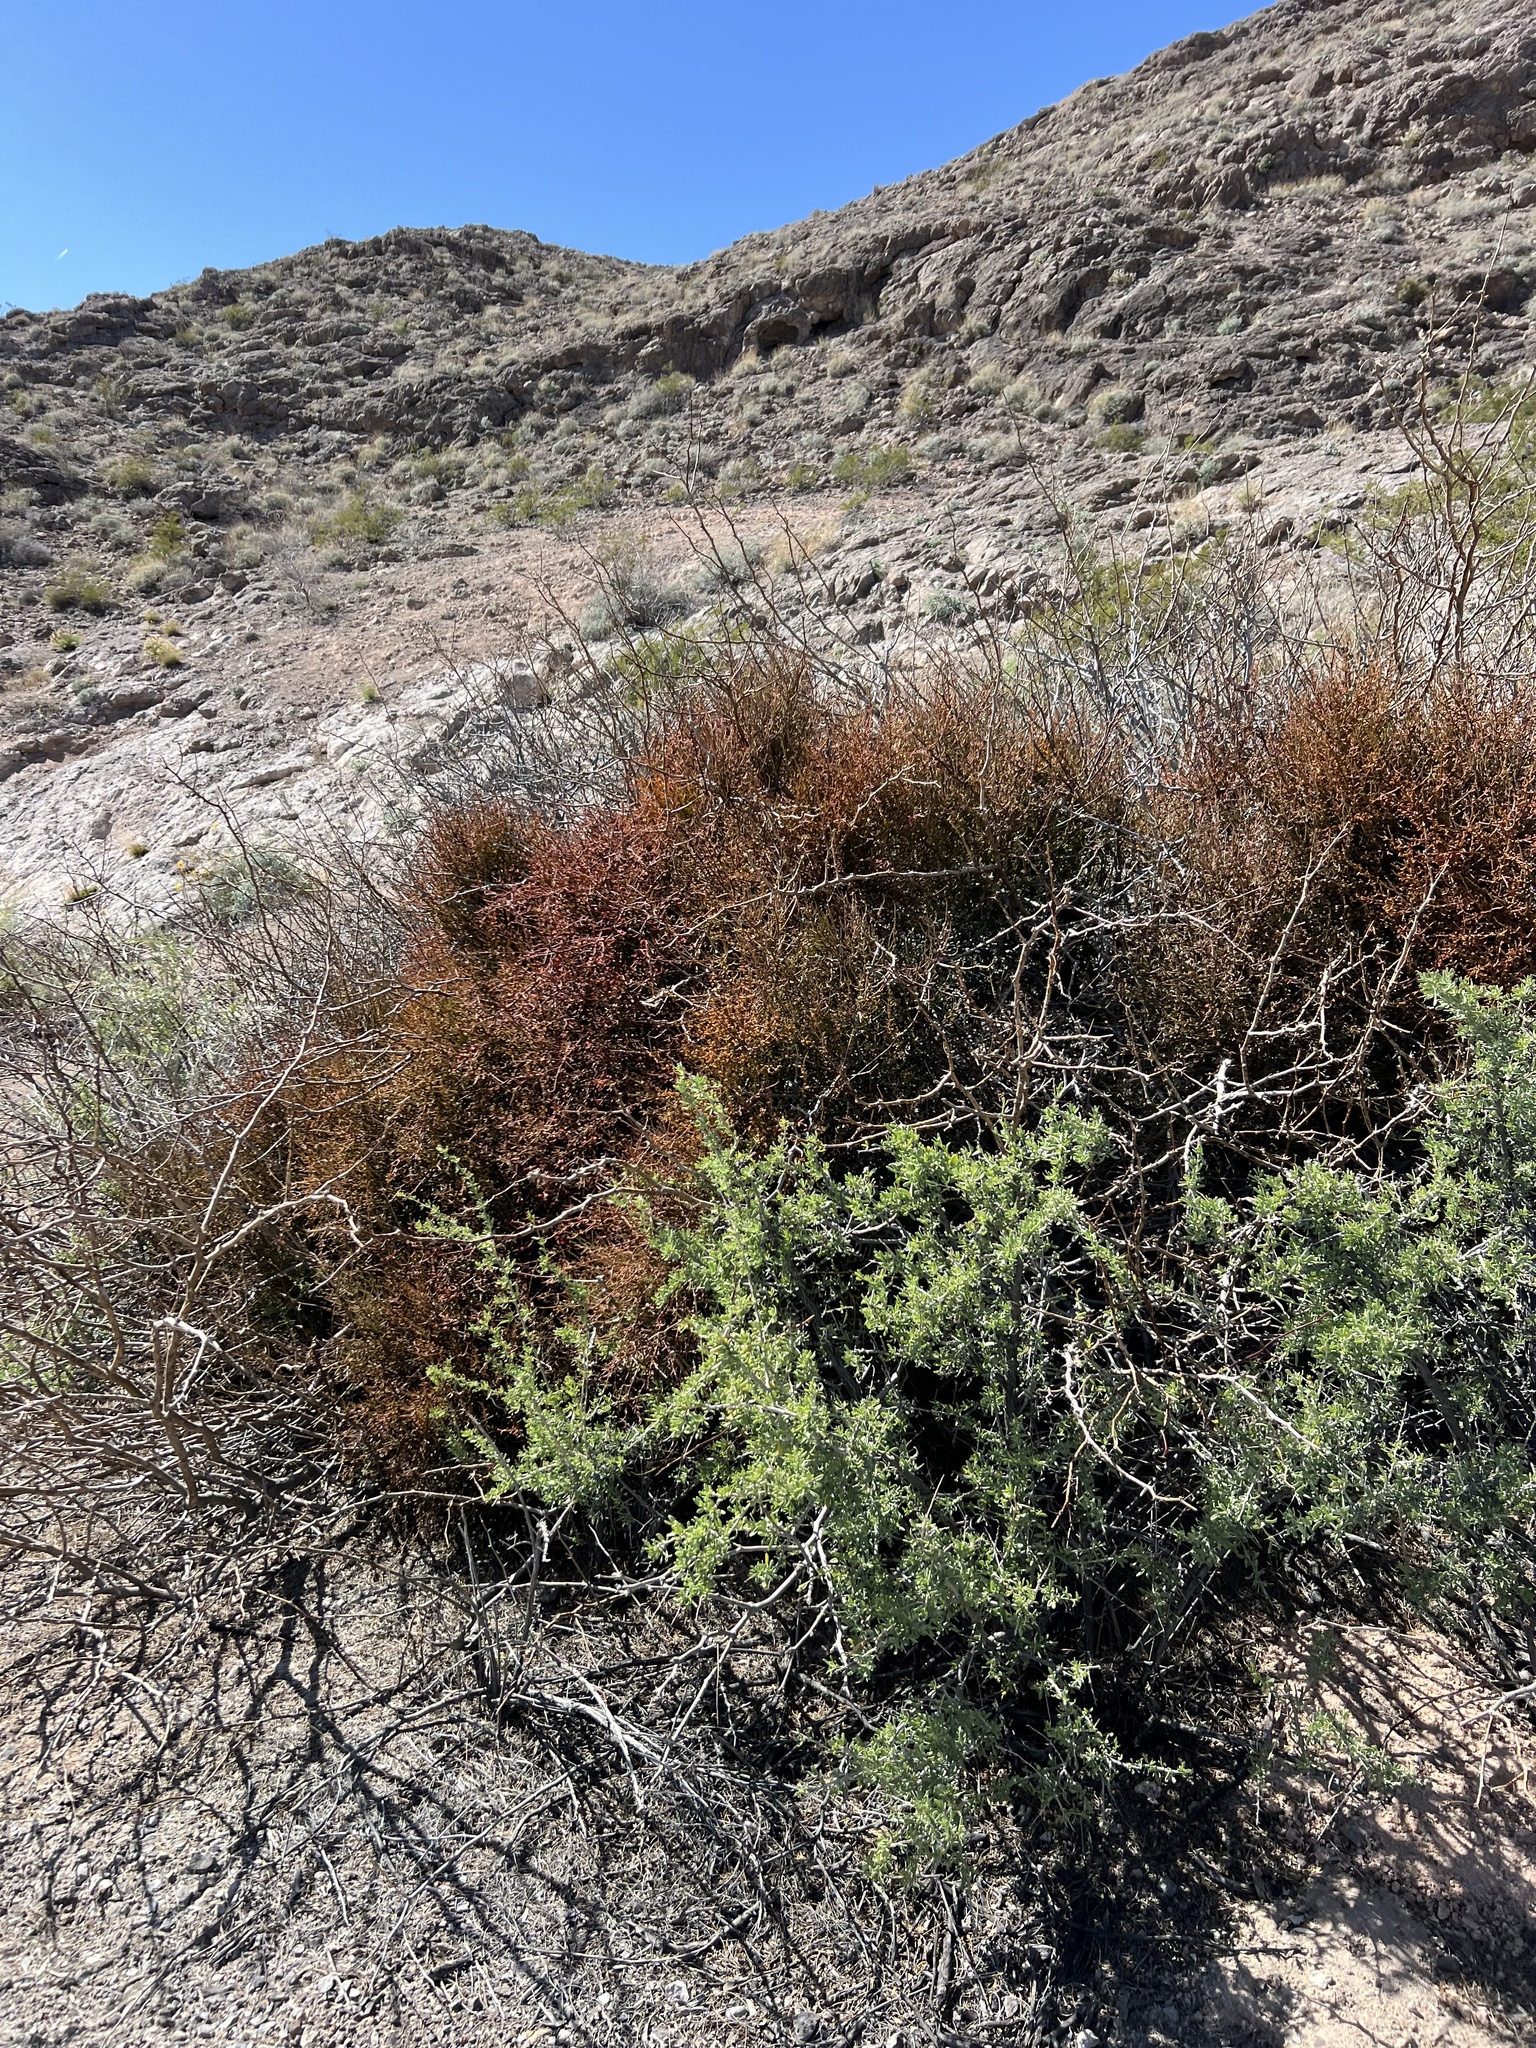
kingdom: Plantae
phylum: Tracheophyta
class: Magnoliopsida
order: Santalales
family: Viscaceae
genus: Phoradendron
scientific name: Phoradendron californicum
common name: Acacia mistletoe
